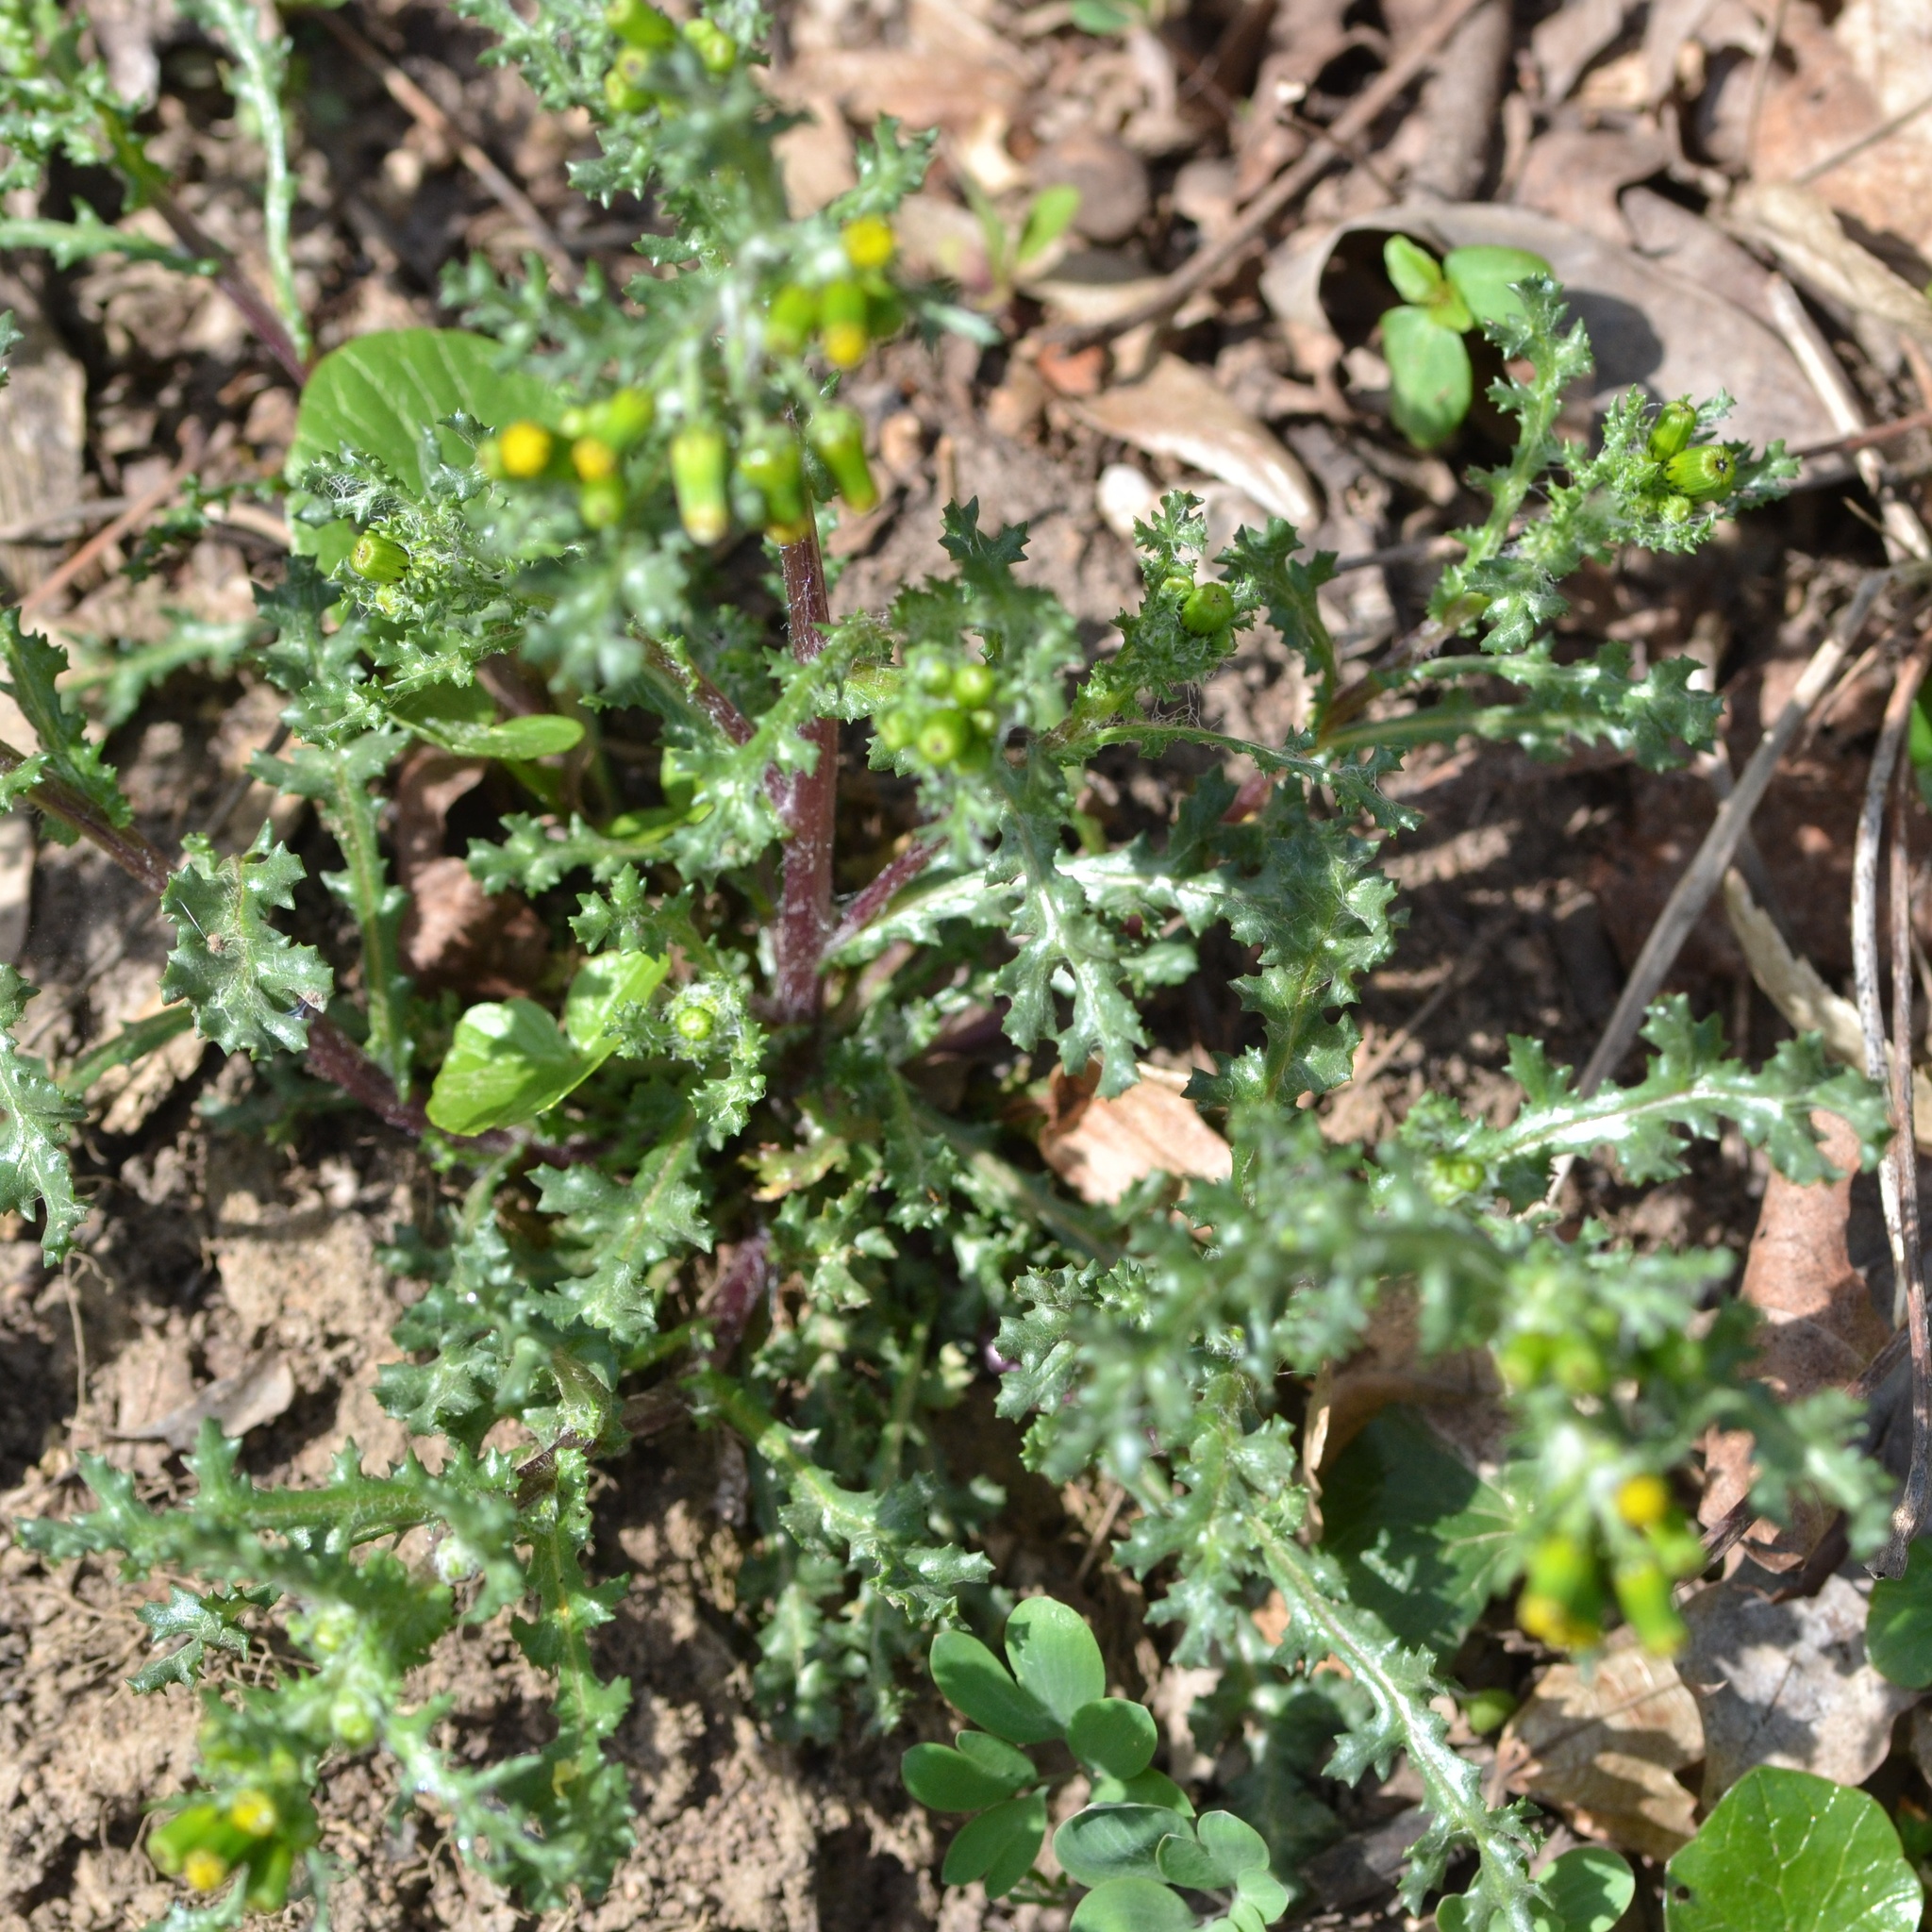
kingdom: Plantae
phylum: Tracheophyta
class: Magnoliopsida
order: Asterales
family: Asteraceae
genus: Senecio
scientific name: Senecio vulgaris
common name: Old-man-in-the-spring
